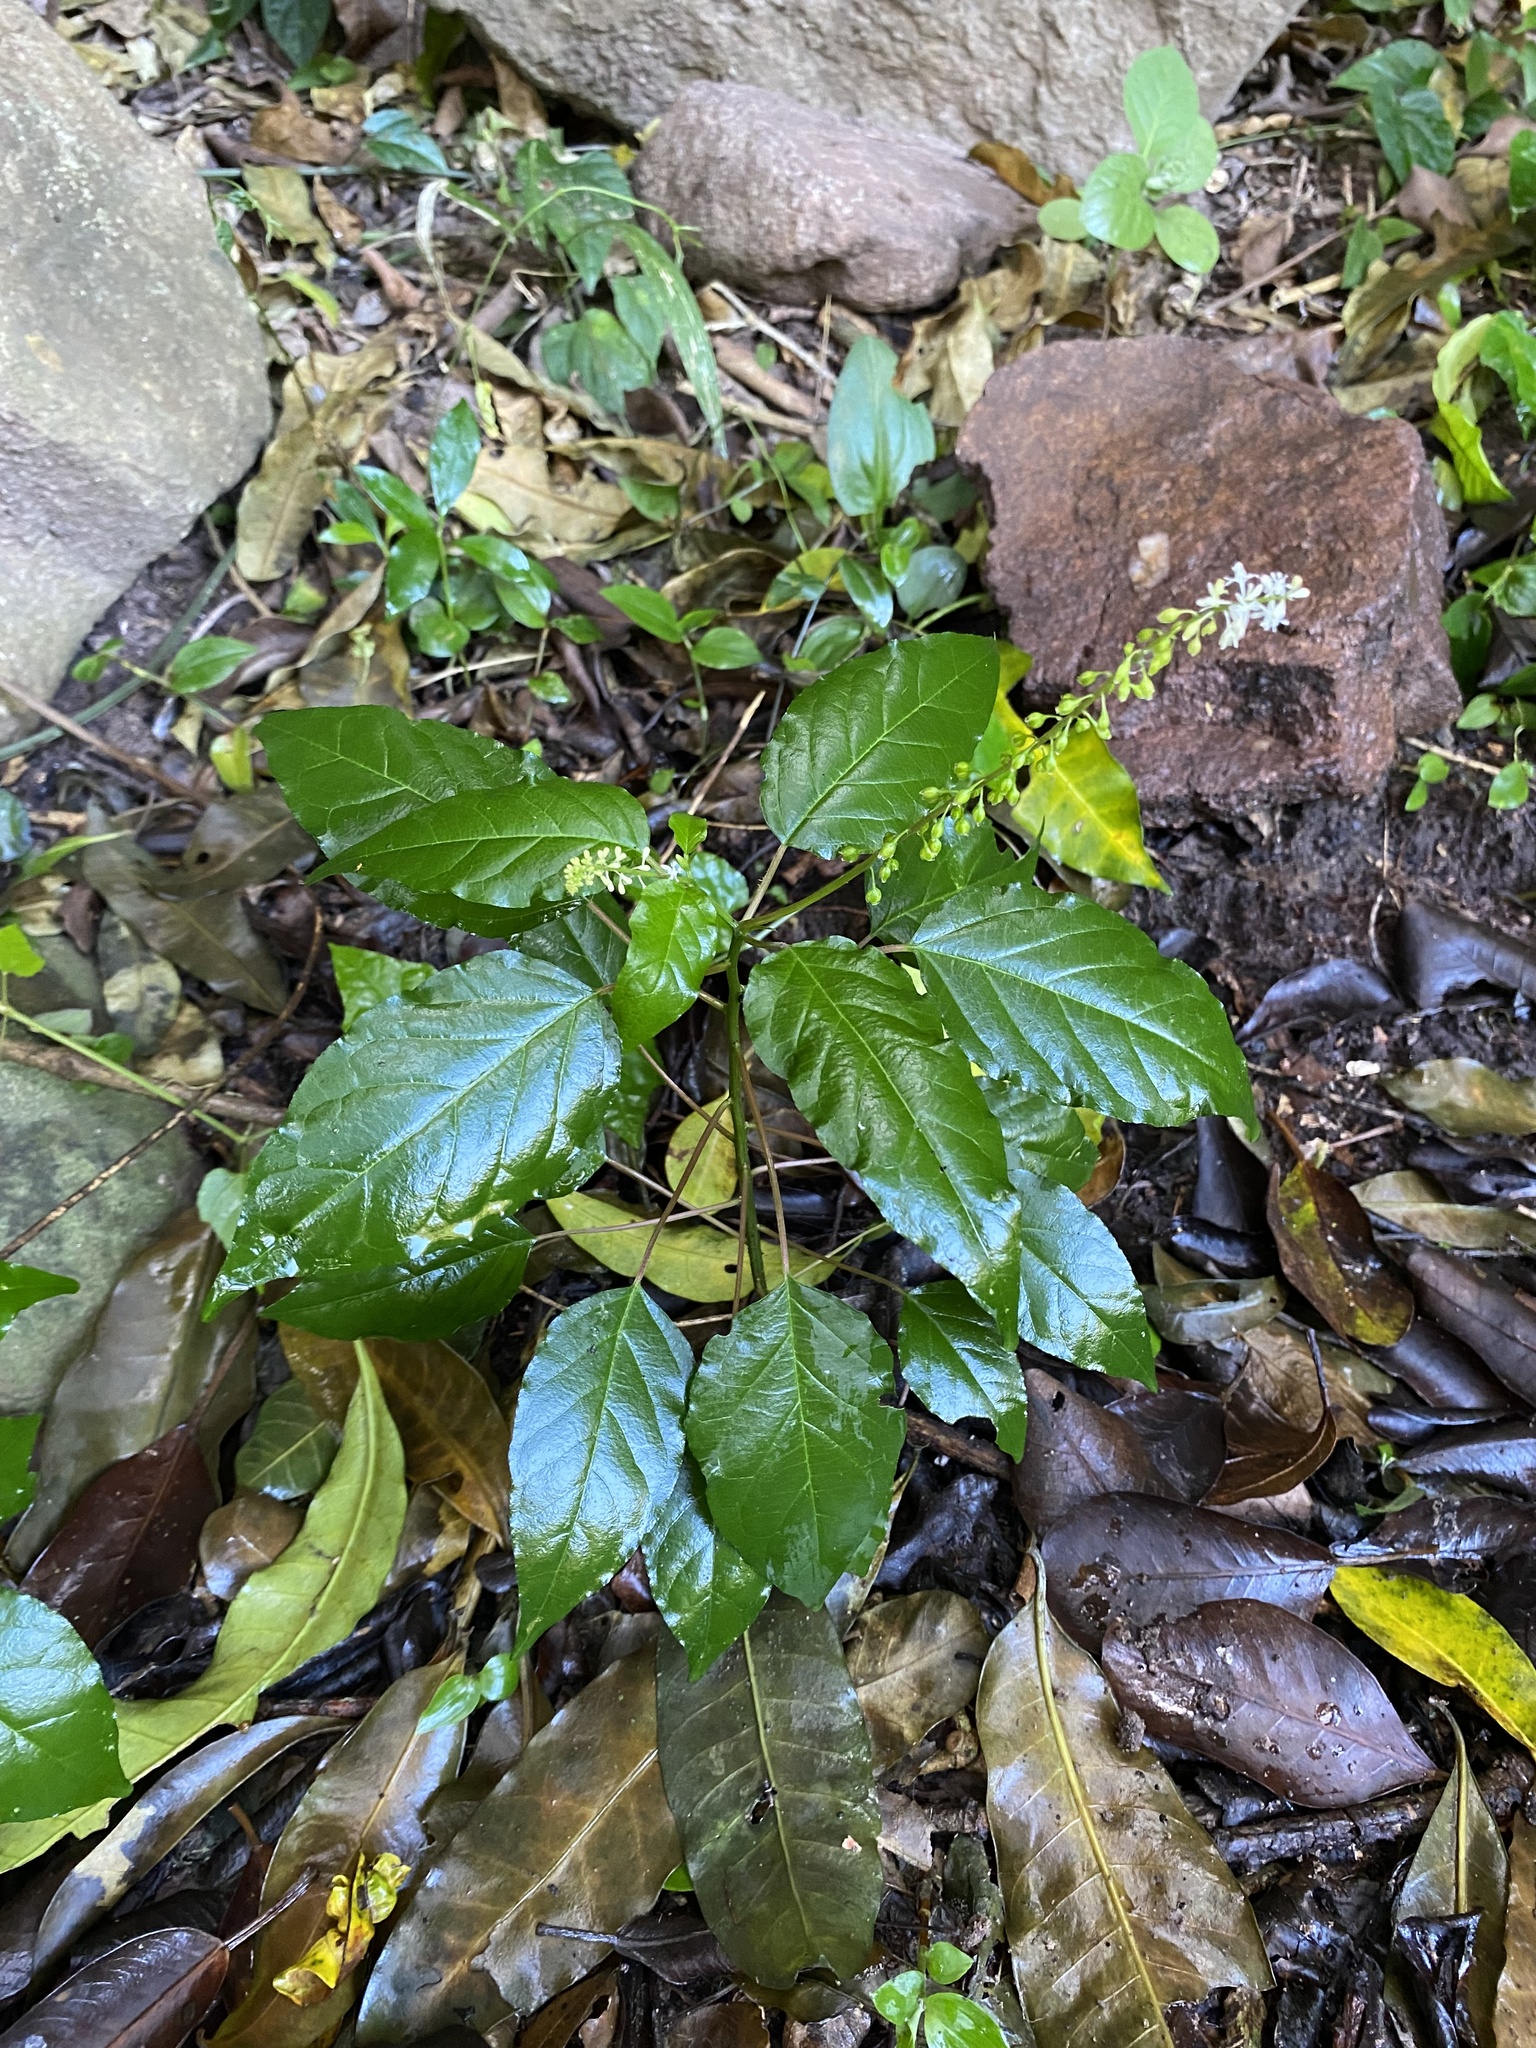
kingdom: Plantae
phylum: Tracheophyta
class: Magnoliopsida
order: Caryophyllales
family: Phytolaccaceae
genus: Rivina
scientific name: Rivina humilis
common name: Rougeplant
